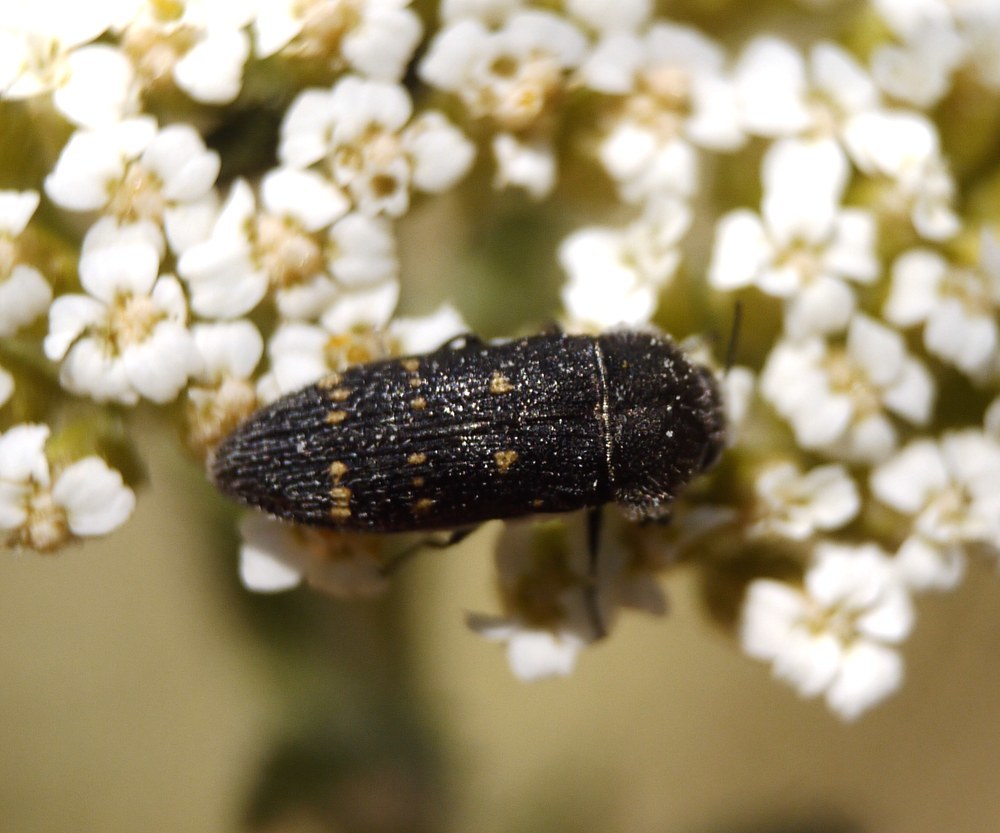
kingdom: Animalia
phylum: Arthropoda
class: Insecta
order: Coleoptera
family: Buprestidae
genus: Acmaeoderella
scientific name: Acmaeoderella flavofasciata
